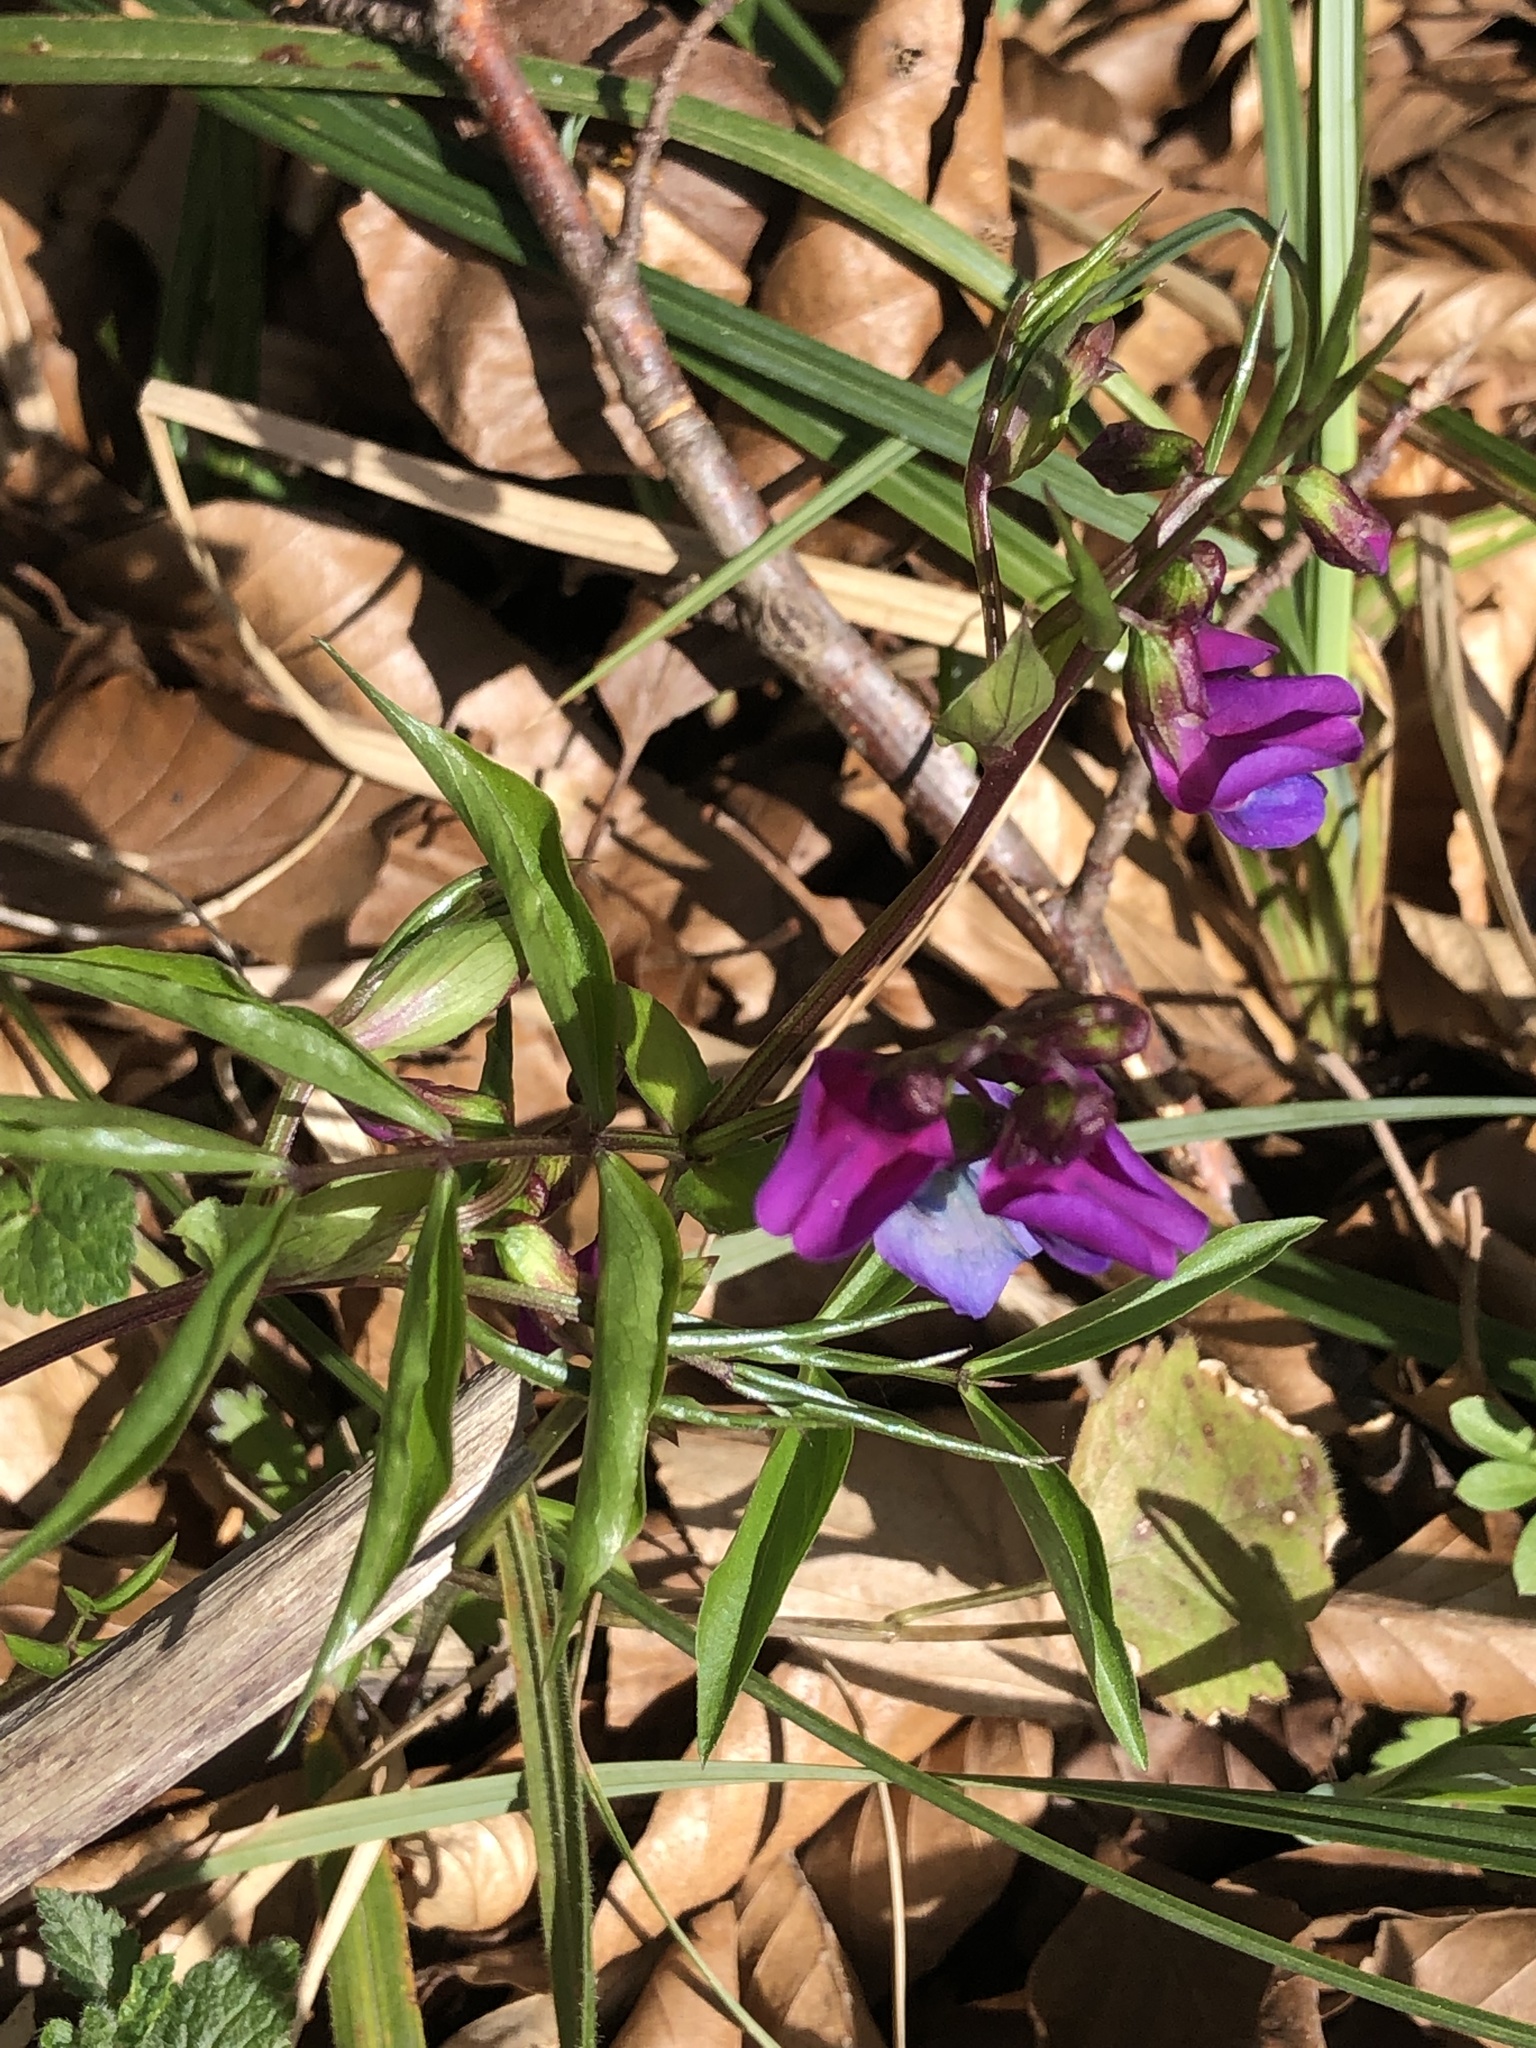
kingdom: Plantae
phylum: Tracheophyta
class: Magnoliopsida
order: Fabales
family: Fabaceae
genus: Lathyrus
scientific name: Lathyrus vernus
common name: Spring pea
